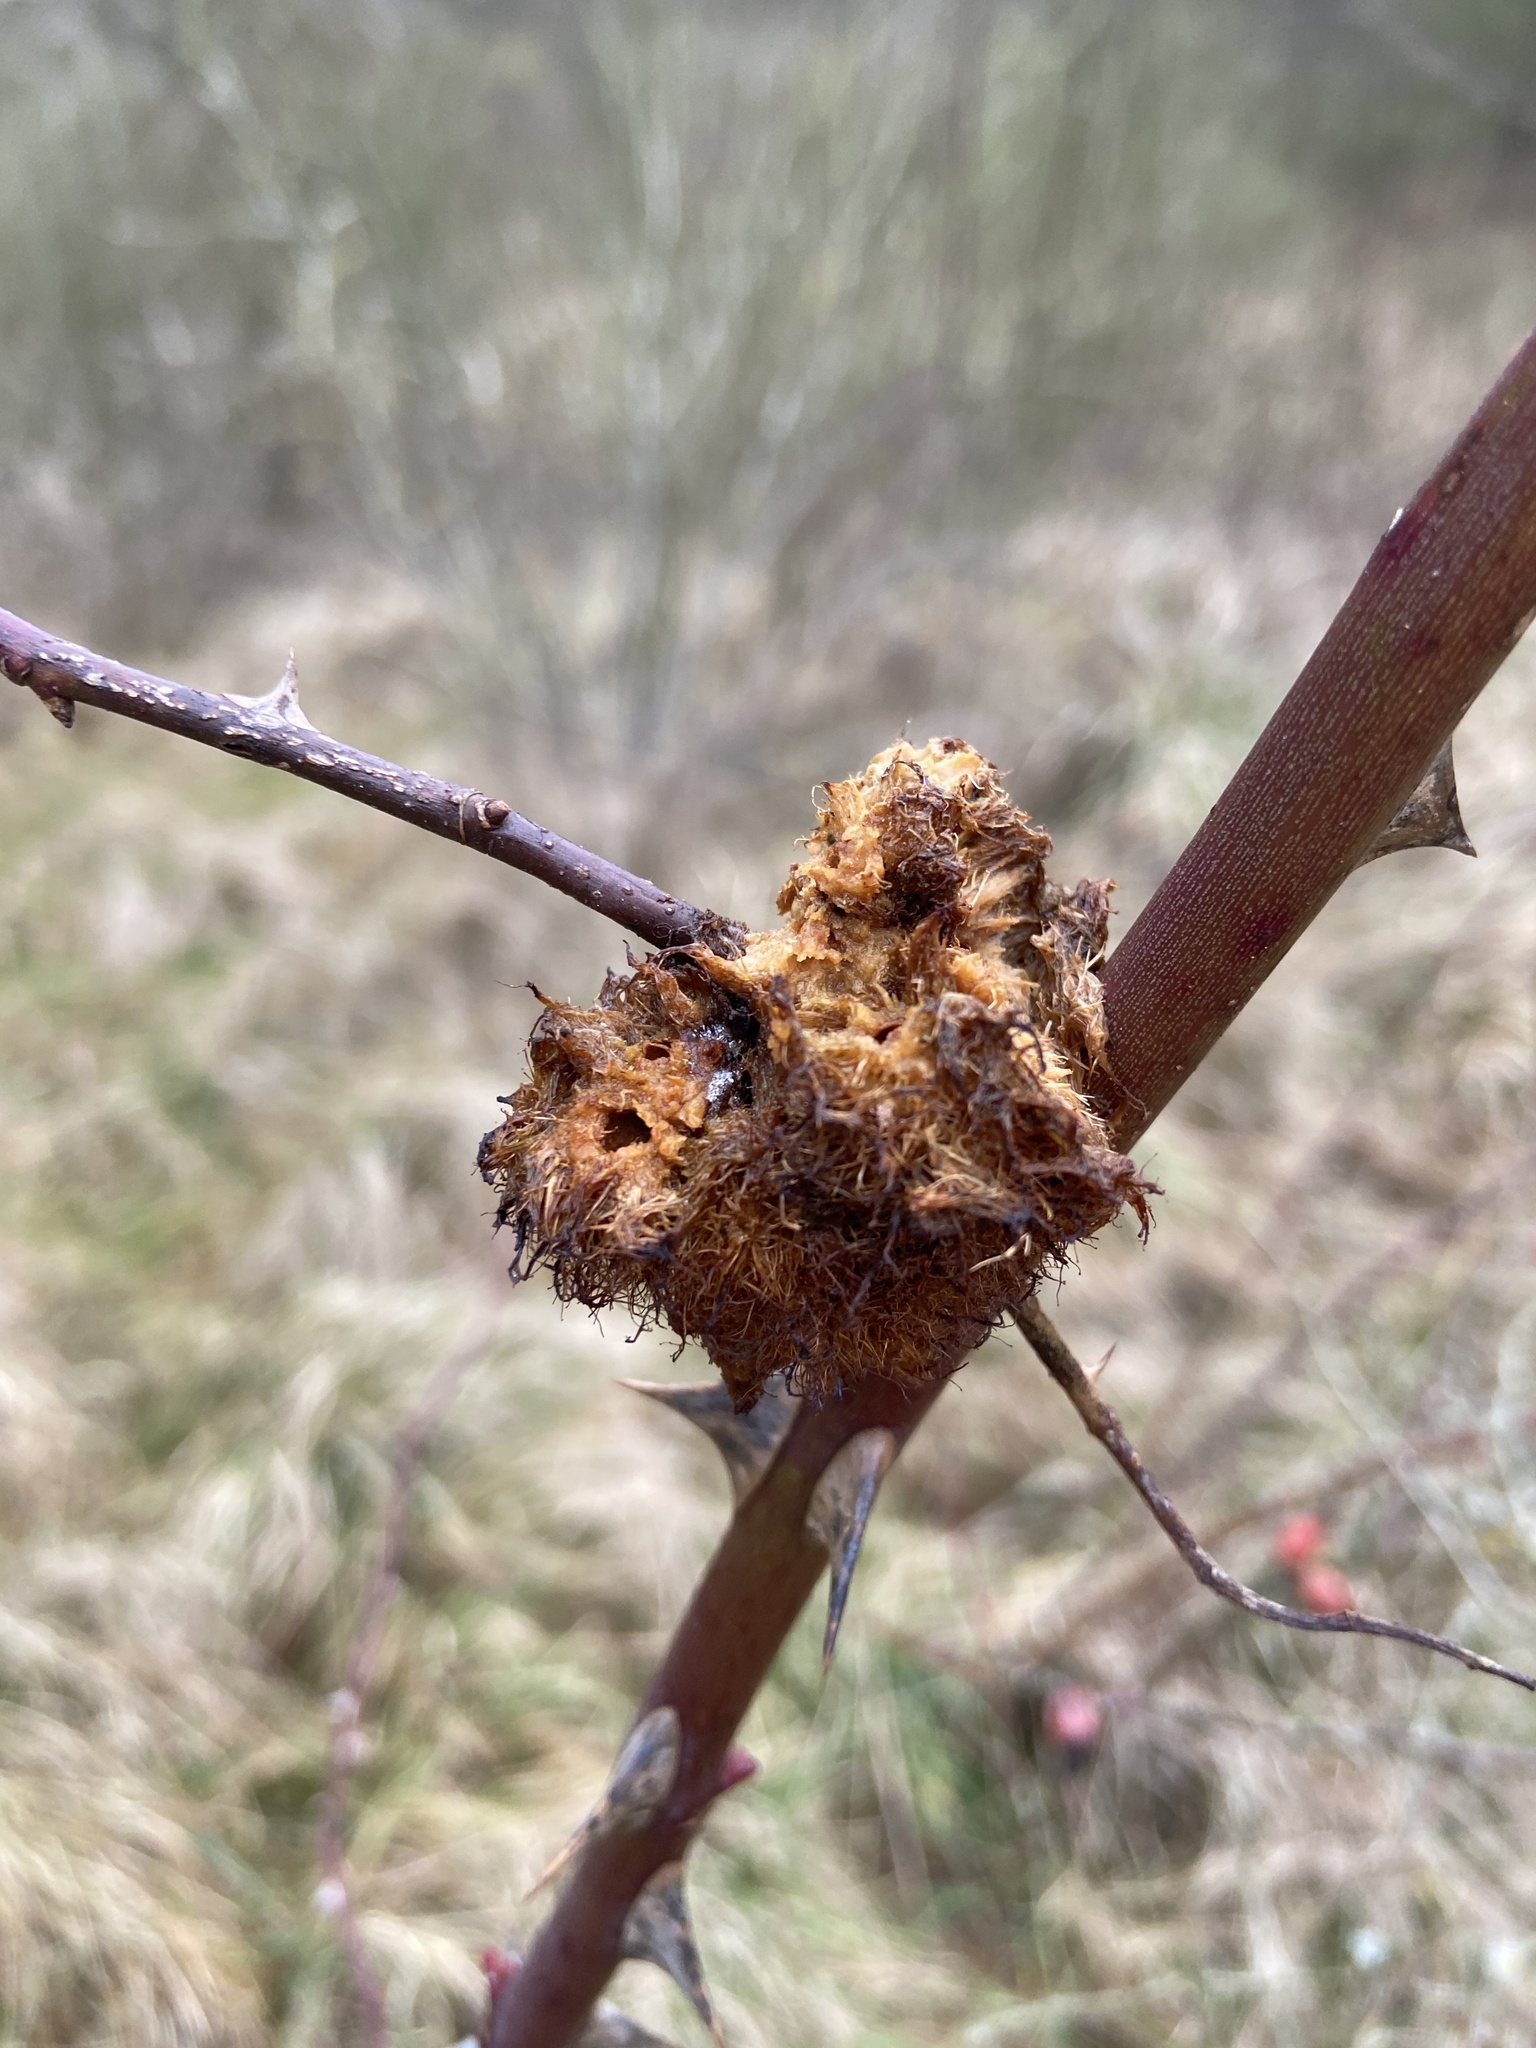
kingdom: Animalia
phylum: Arthropoda
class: Insecta
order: Hymenoptera
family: Cynipidae
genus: Diplolepis
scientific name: Diplolepis rosae
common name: Bedeguar gall
